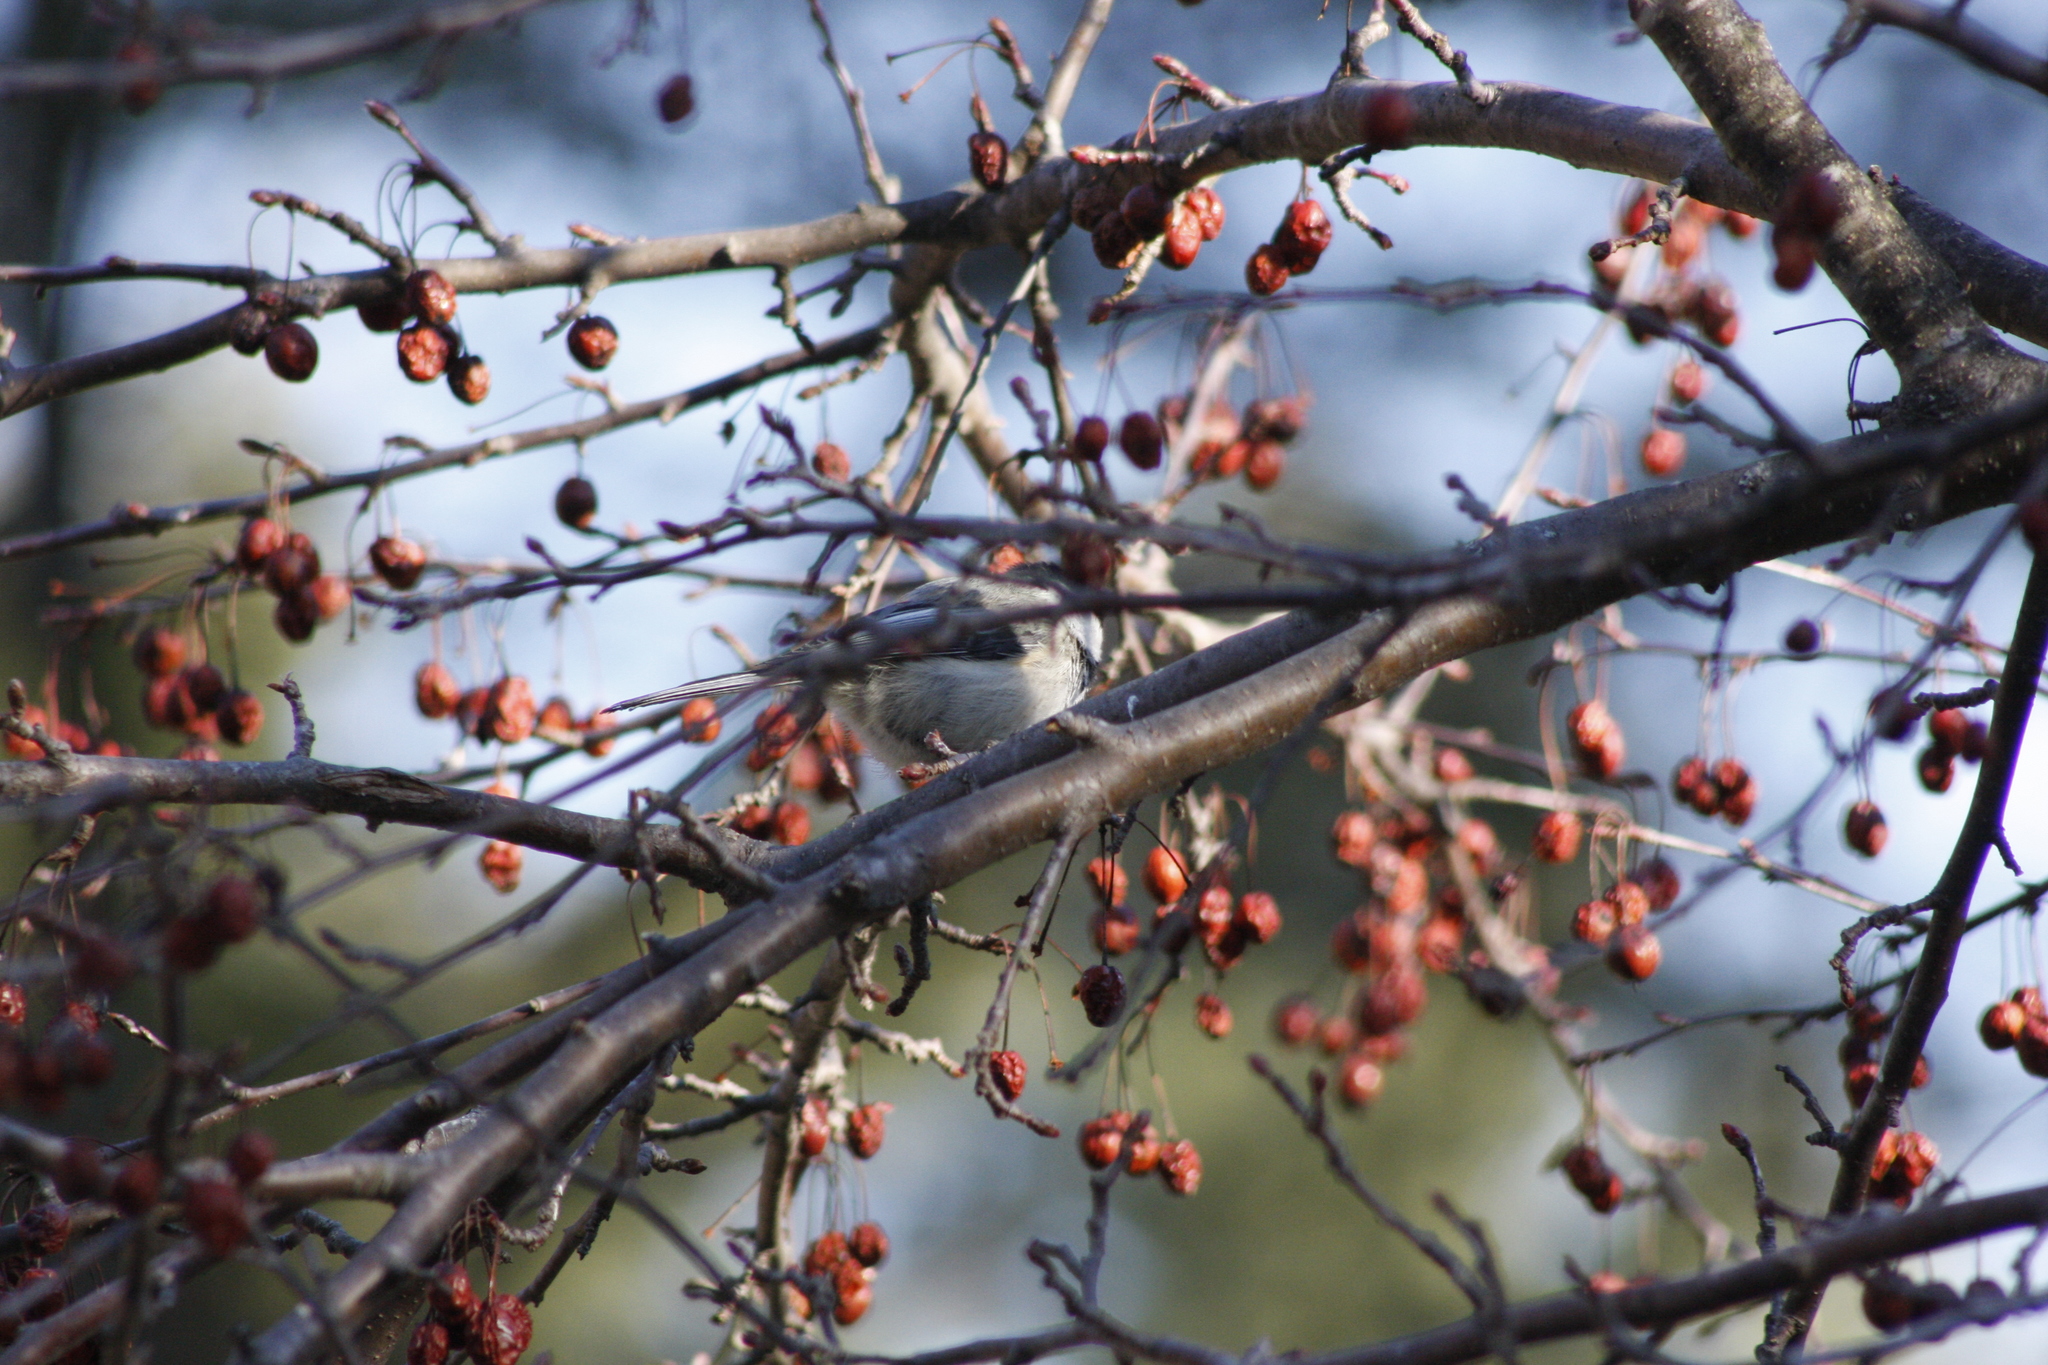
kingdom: Animalia
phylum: Chordata
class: Aves
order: Passeriformes
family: Paridae
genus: Poecile
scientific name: Poecile atricapillus
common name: Black-capped chickadee
